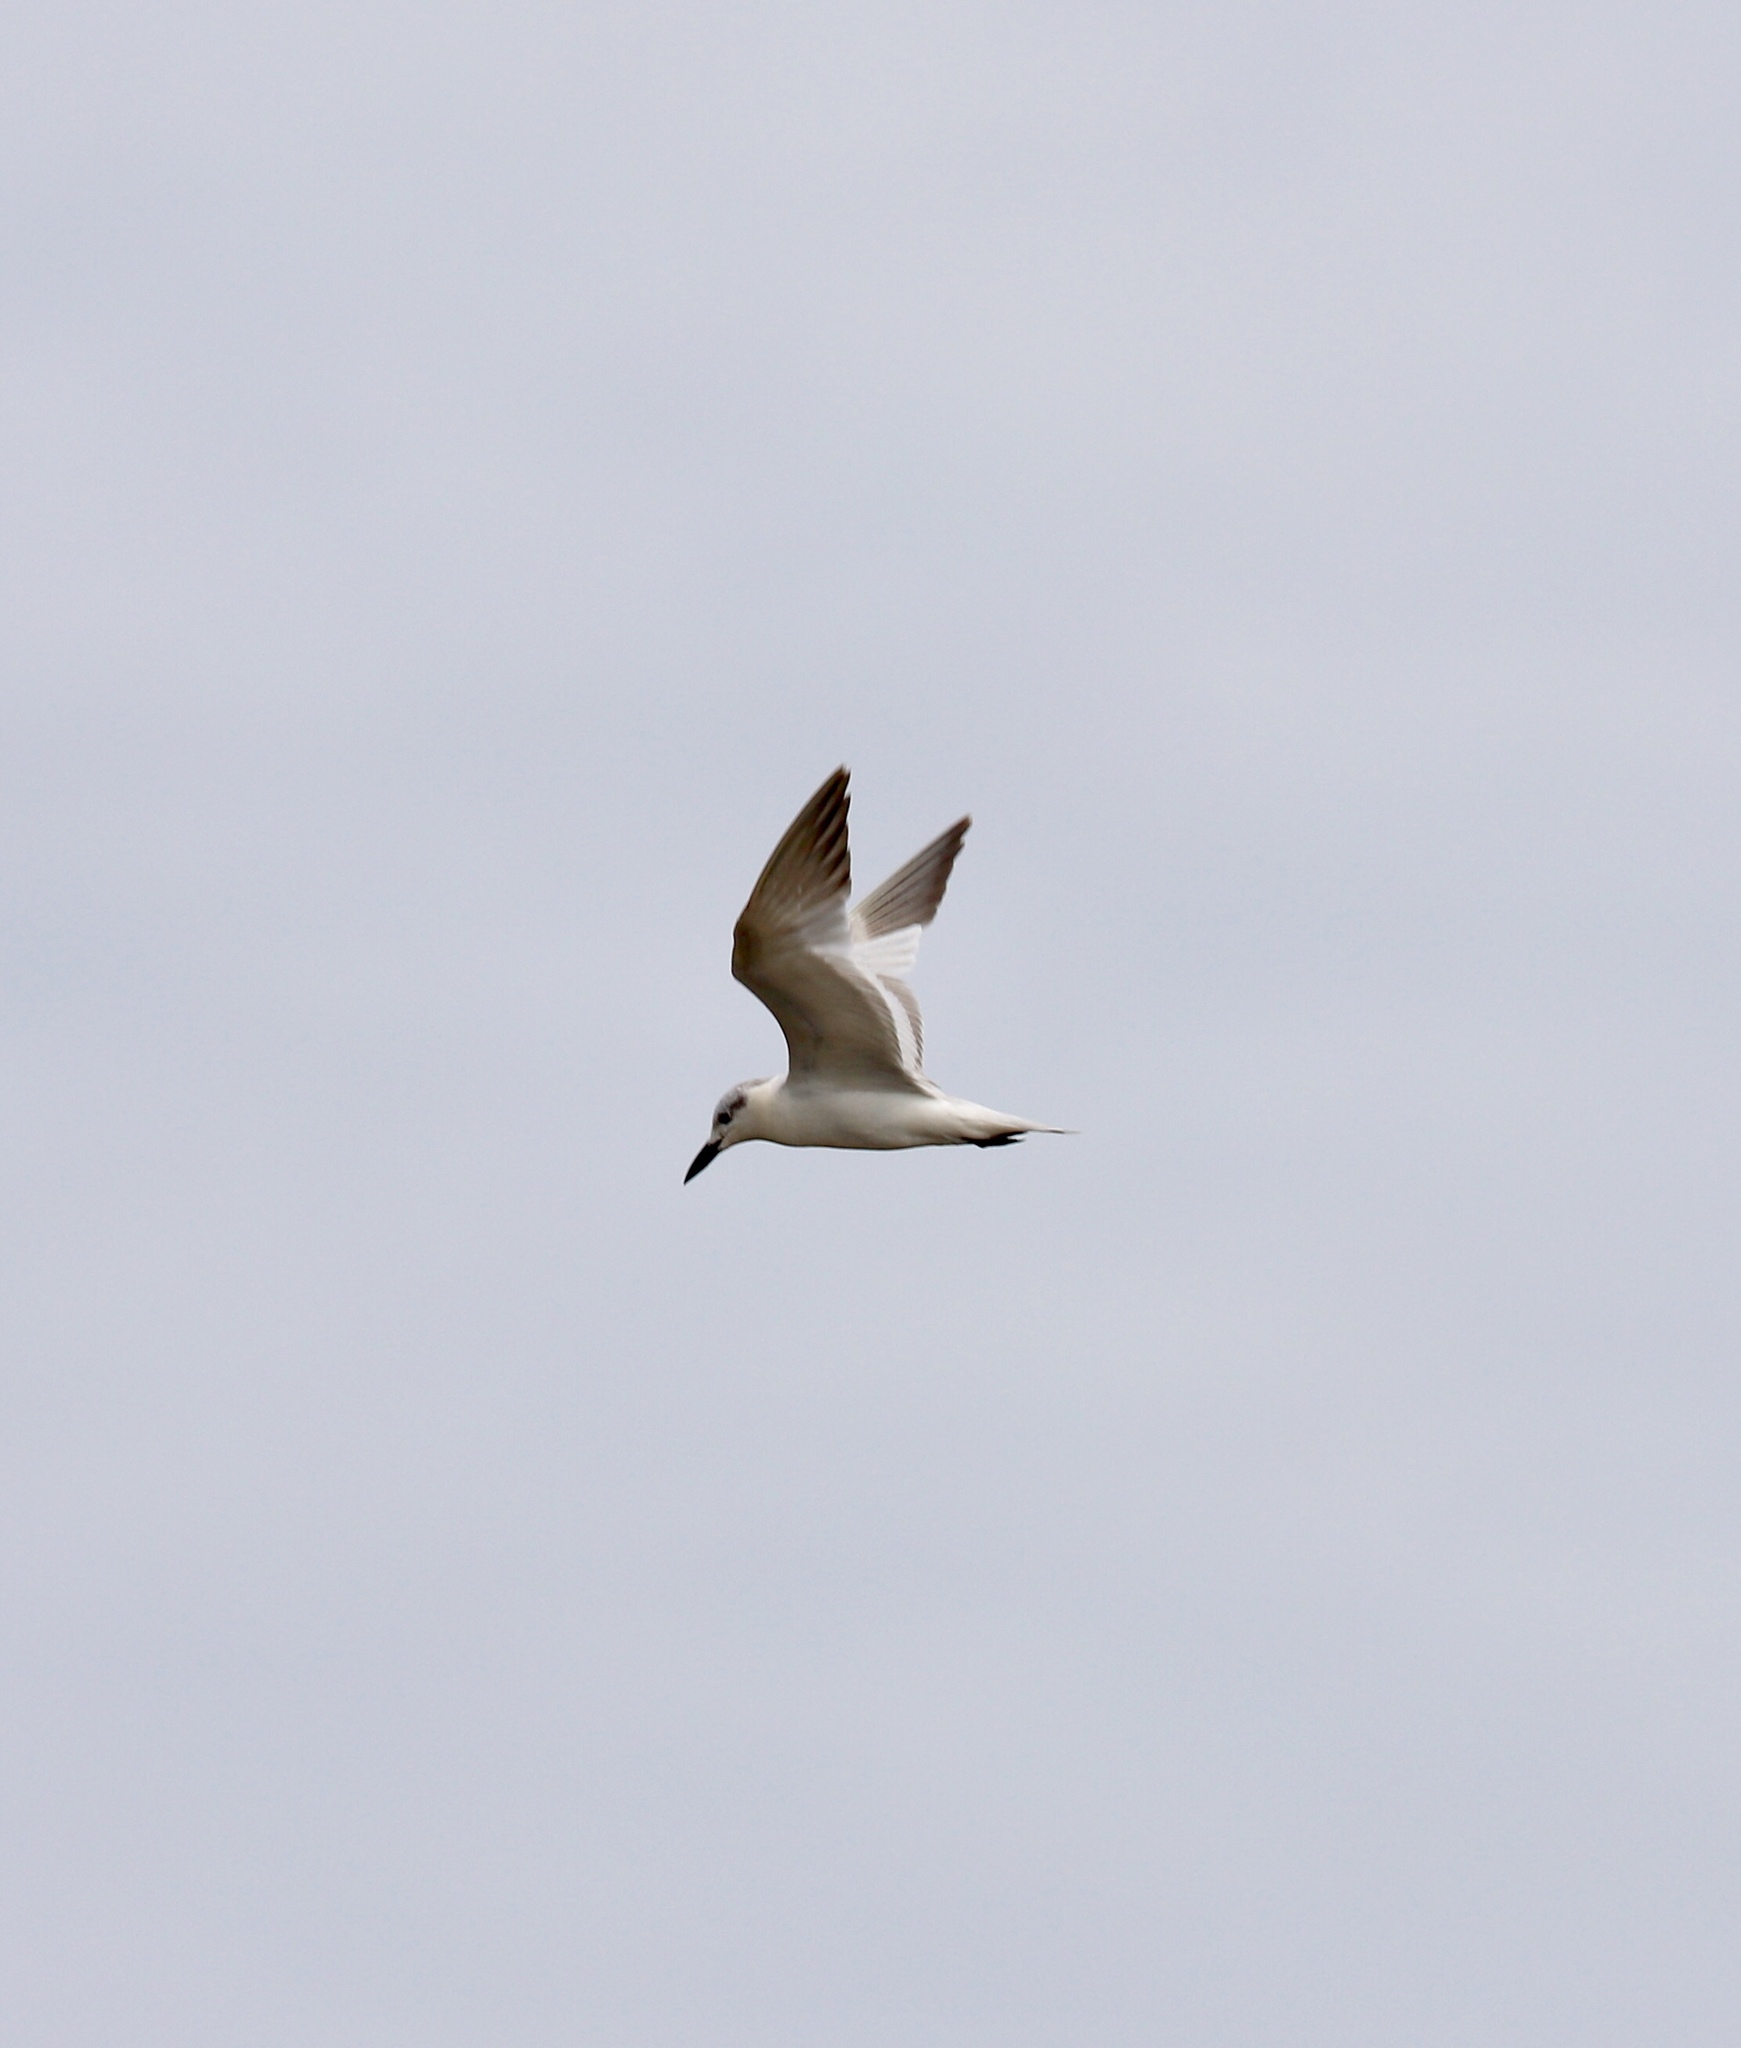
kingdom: Animalia
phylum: Chordata
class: Aves
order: Charadriiformes
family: Laridae
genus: Gelochelidon
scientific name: Gelochelidon nilotica
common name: Gull-billed tern
